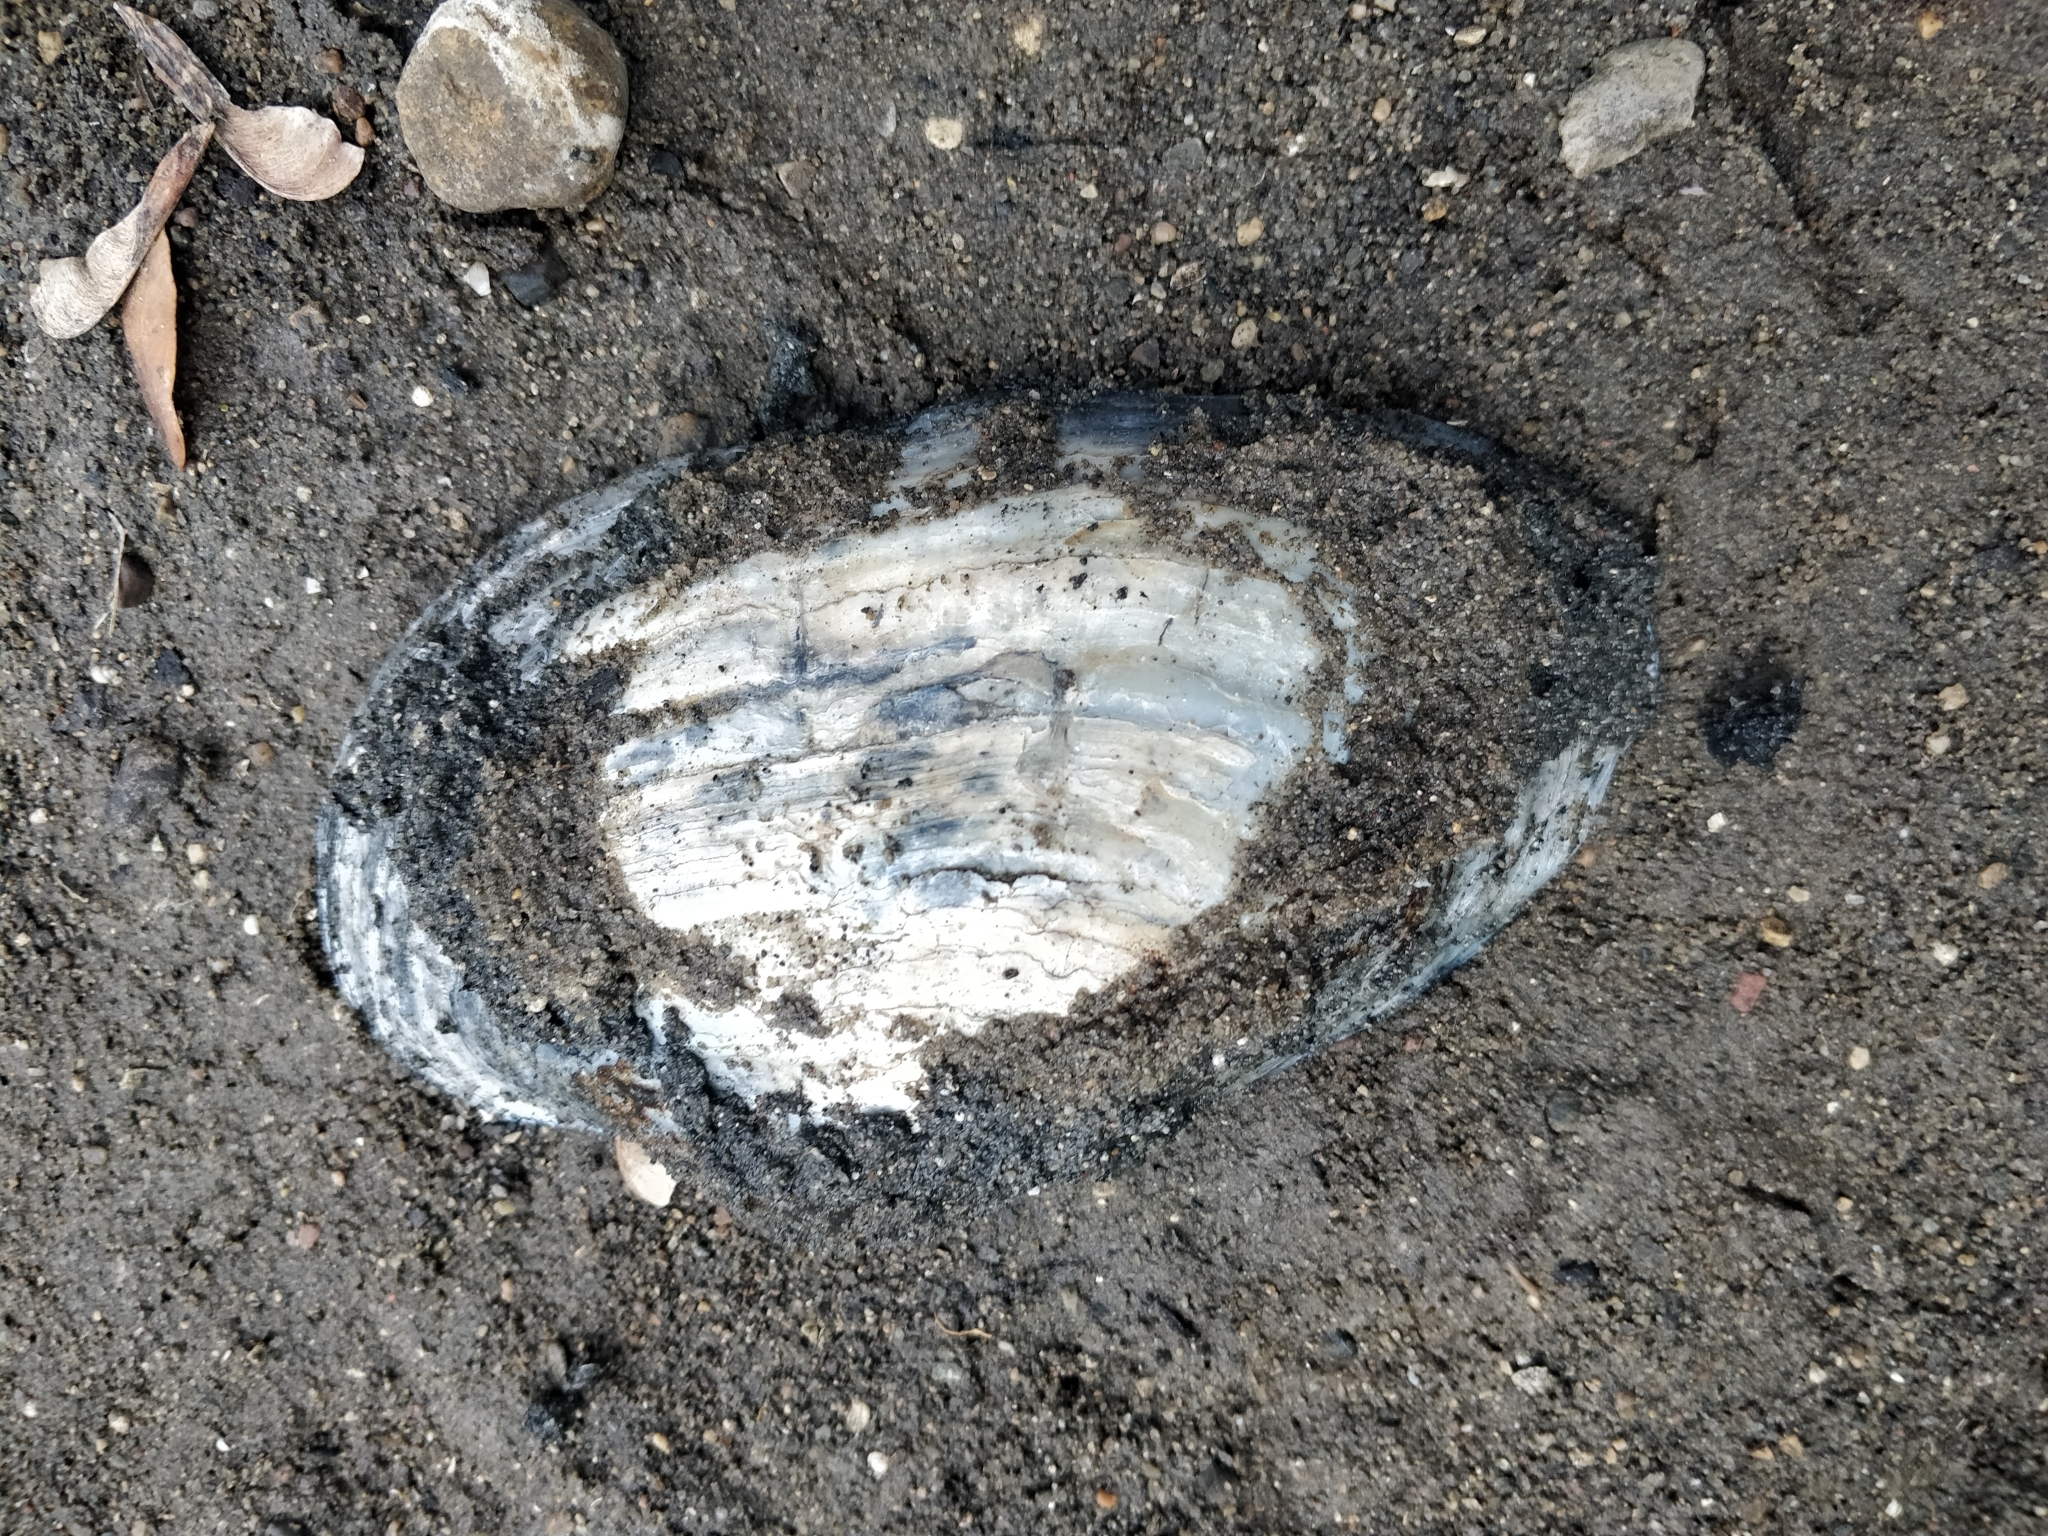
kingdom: Animalia
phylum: Mollusca
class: Bivalvia
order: Unionida
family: Unionidae
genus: Pyganodon
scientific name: Pyganodon grandis
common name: Giant floater
